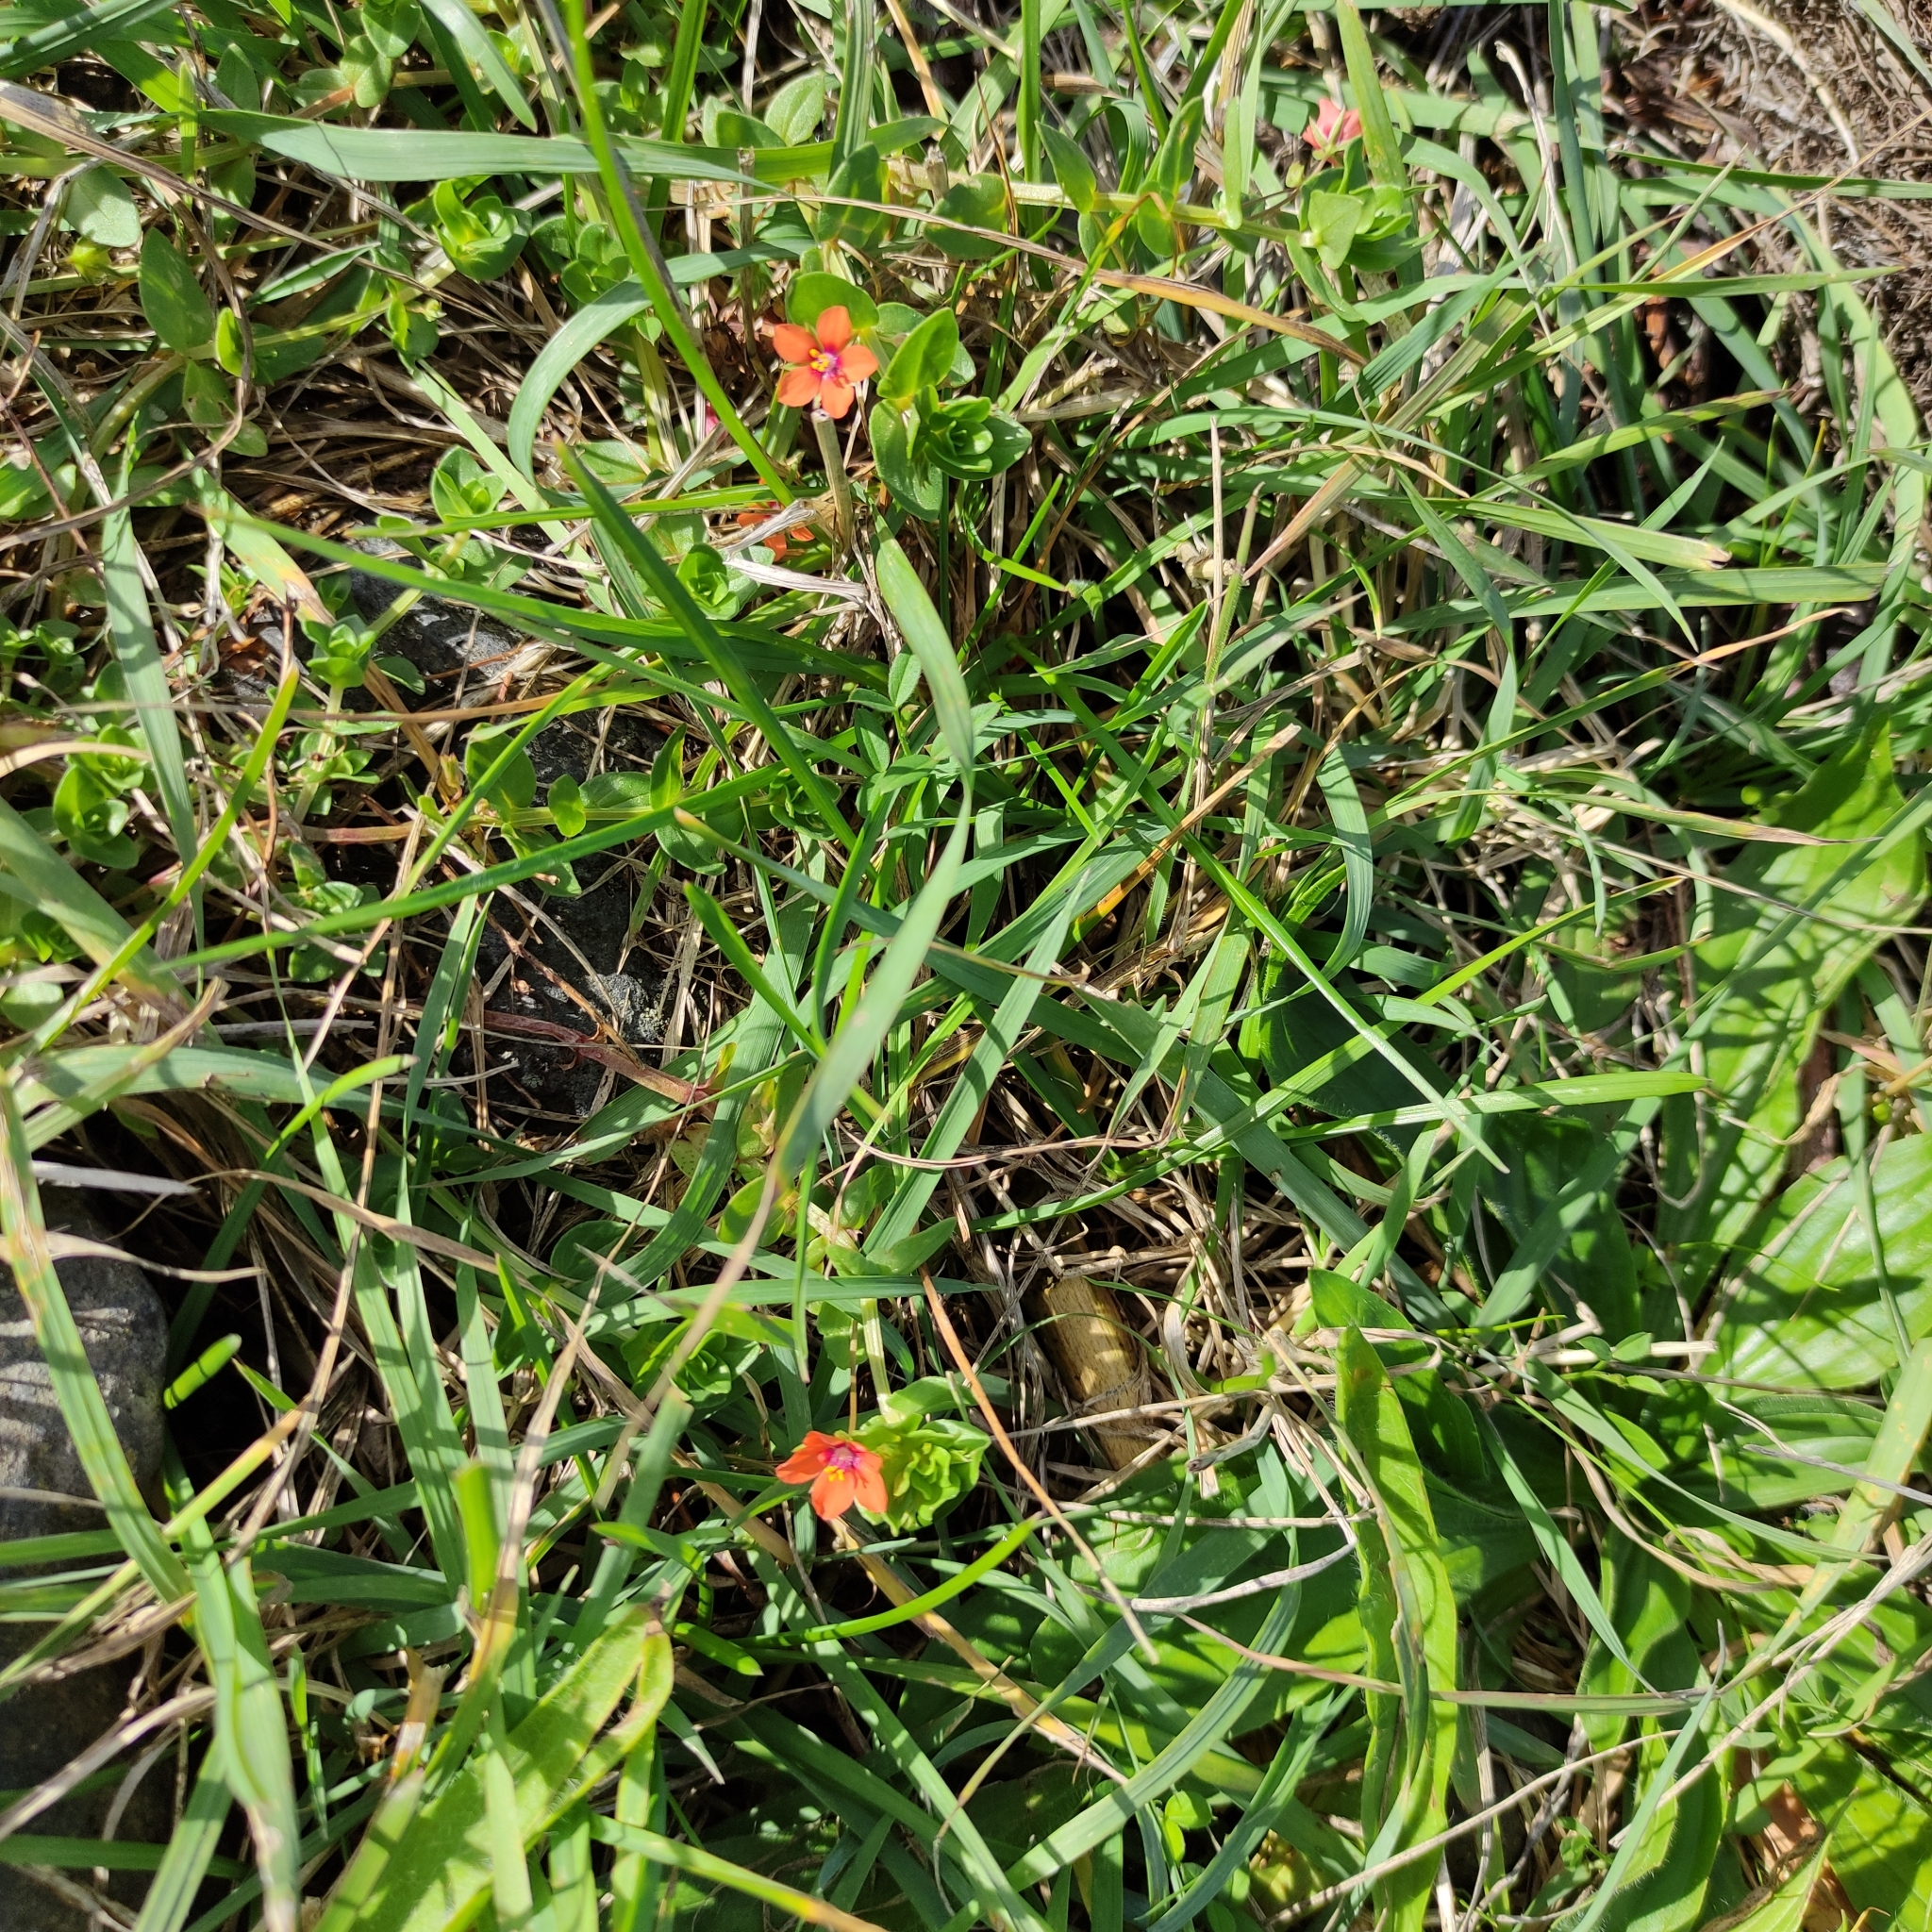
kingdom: Plantae
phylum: Tracheophyta
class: Magnoliopsida
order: Ericales
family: Primulaceae
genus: Lysimachia
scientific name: Lysimachia arvensis
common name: Scarlet pimpernel
